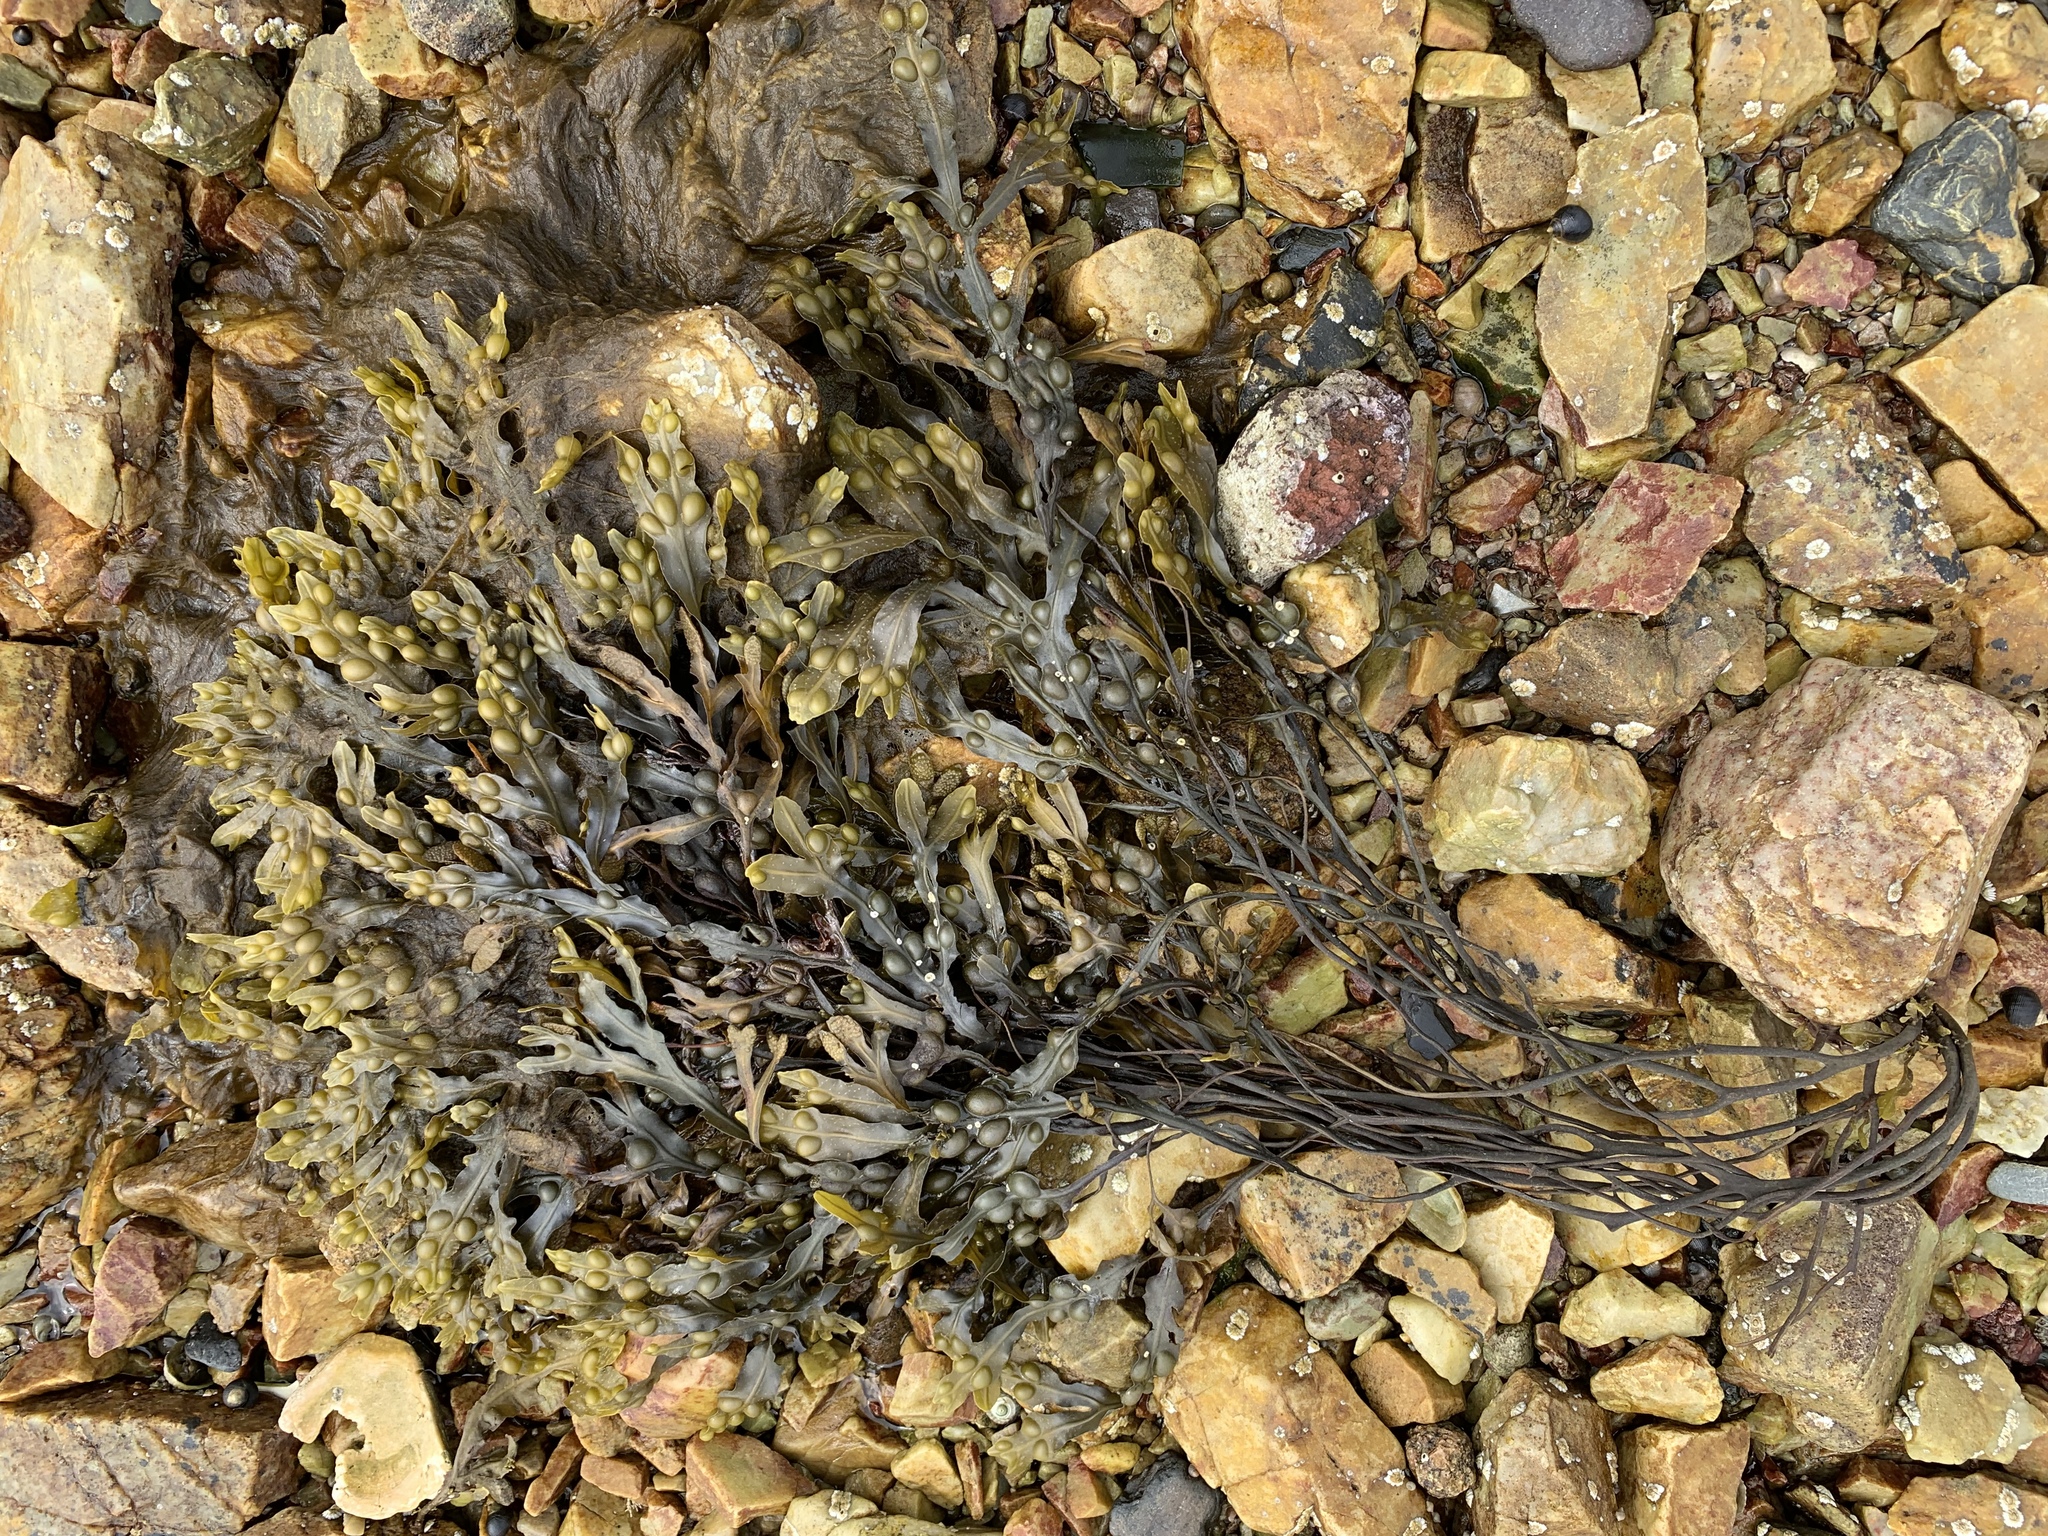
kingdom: Chromista
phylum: Ochrophyta
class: Phaeophyceae
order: Fucales
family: Fucaceae
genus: Fucus
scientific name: Fucus vesiculosus
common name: Bladder wrack
